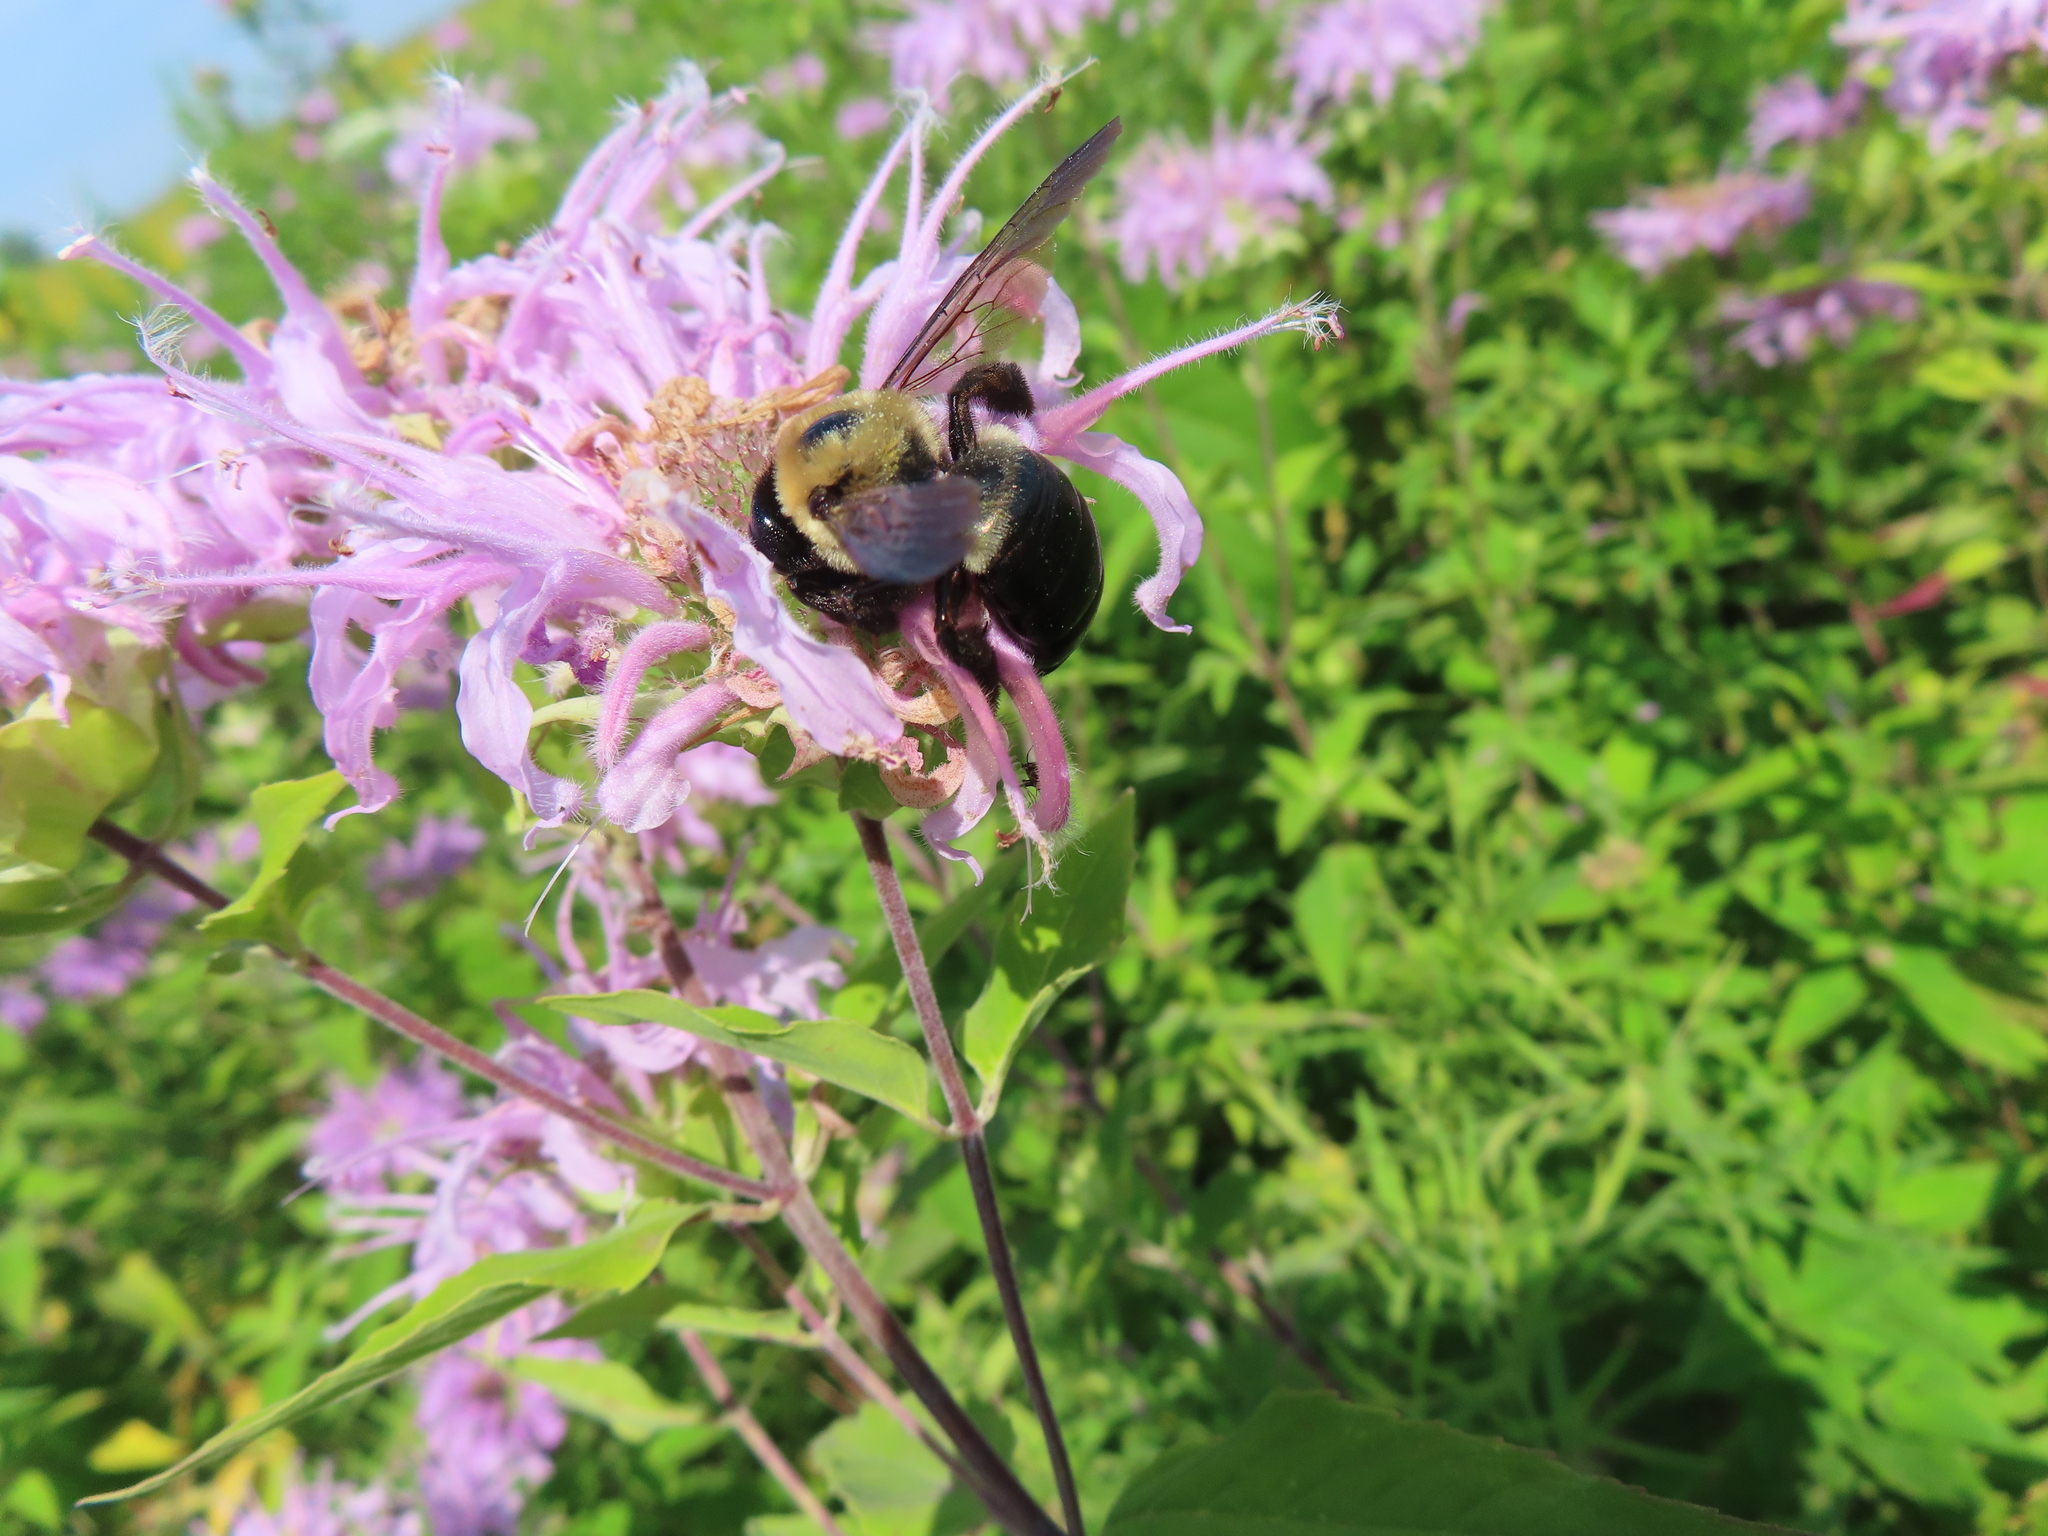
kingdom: Animalia
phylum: Arthropoda
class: Insecta
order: Hymenoptera
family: Apidae
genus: Xylocopa
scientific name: Xylocopa virginica
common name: Carpenter bee
